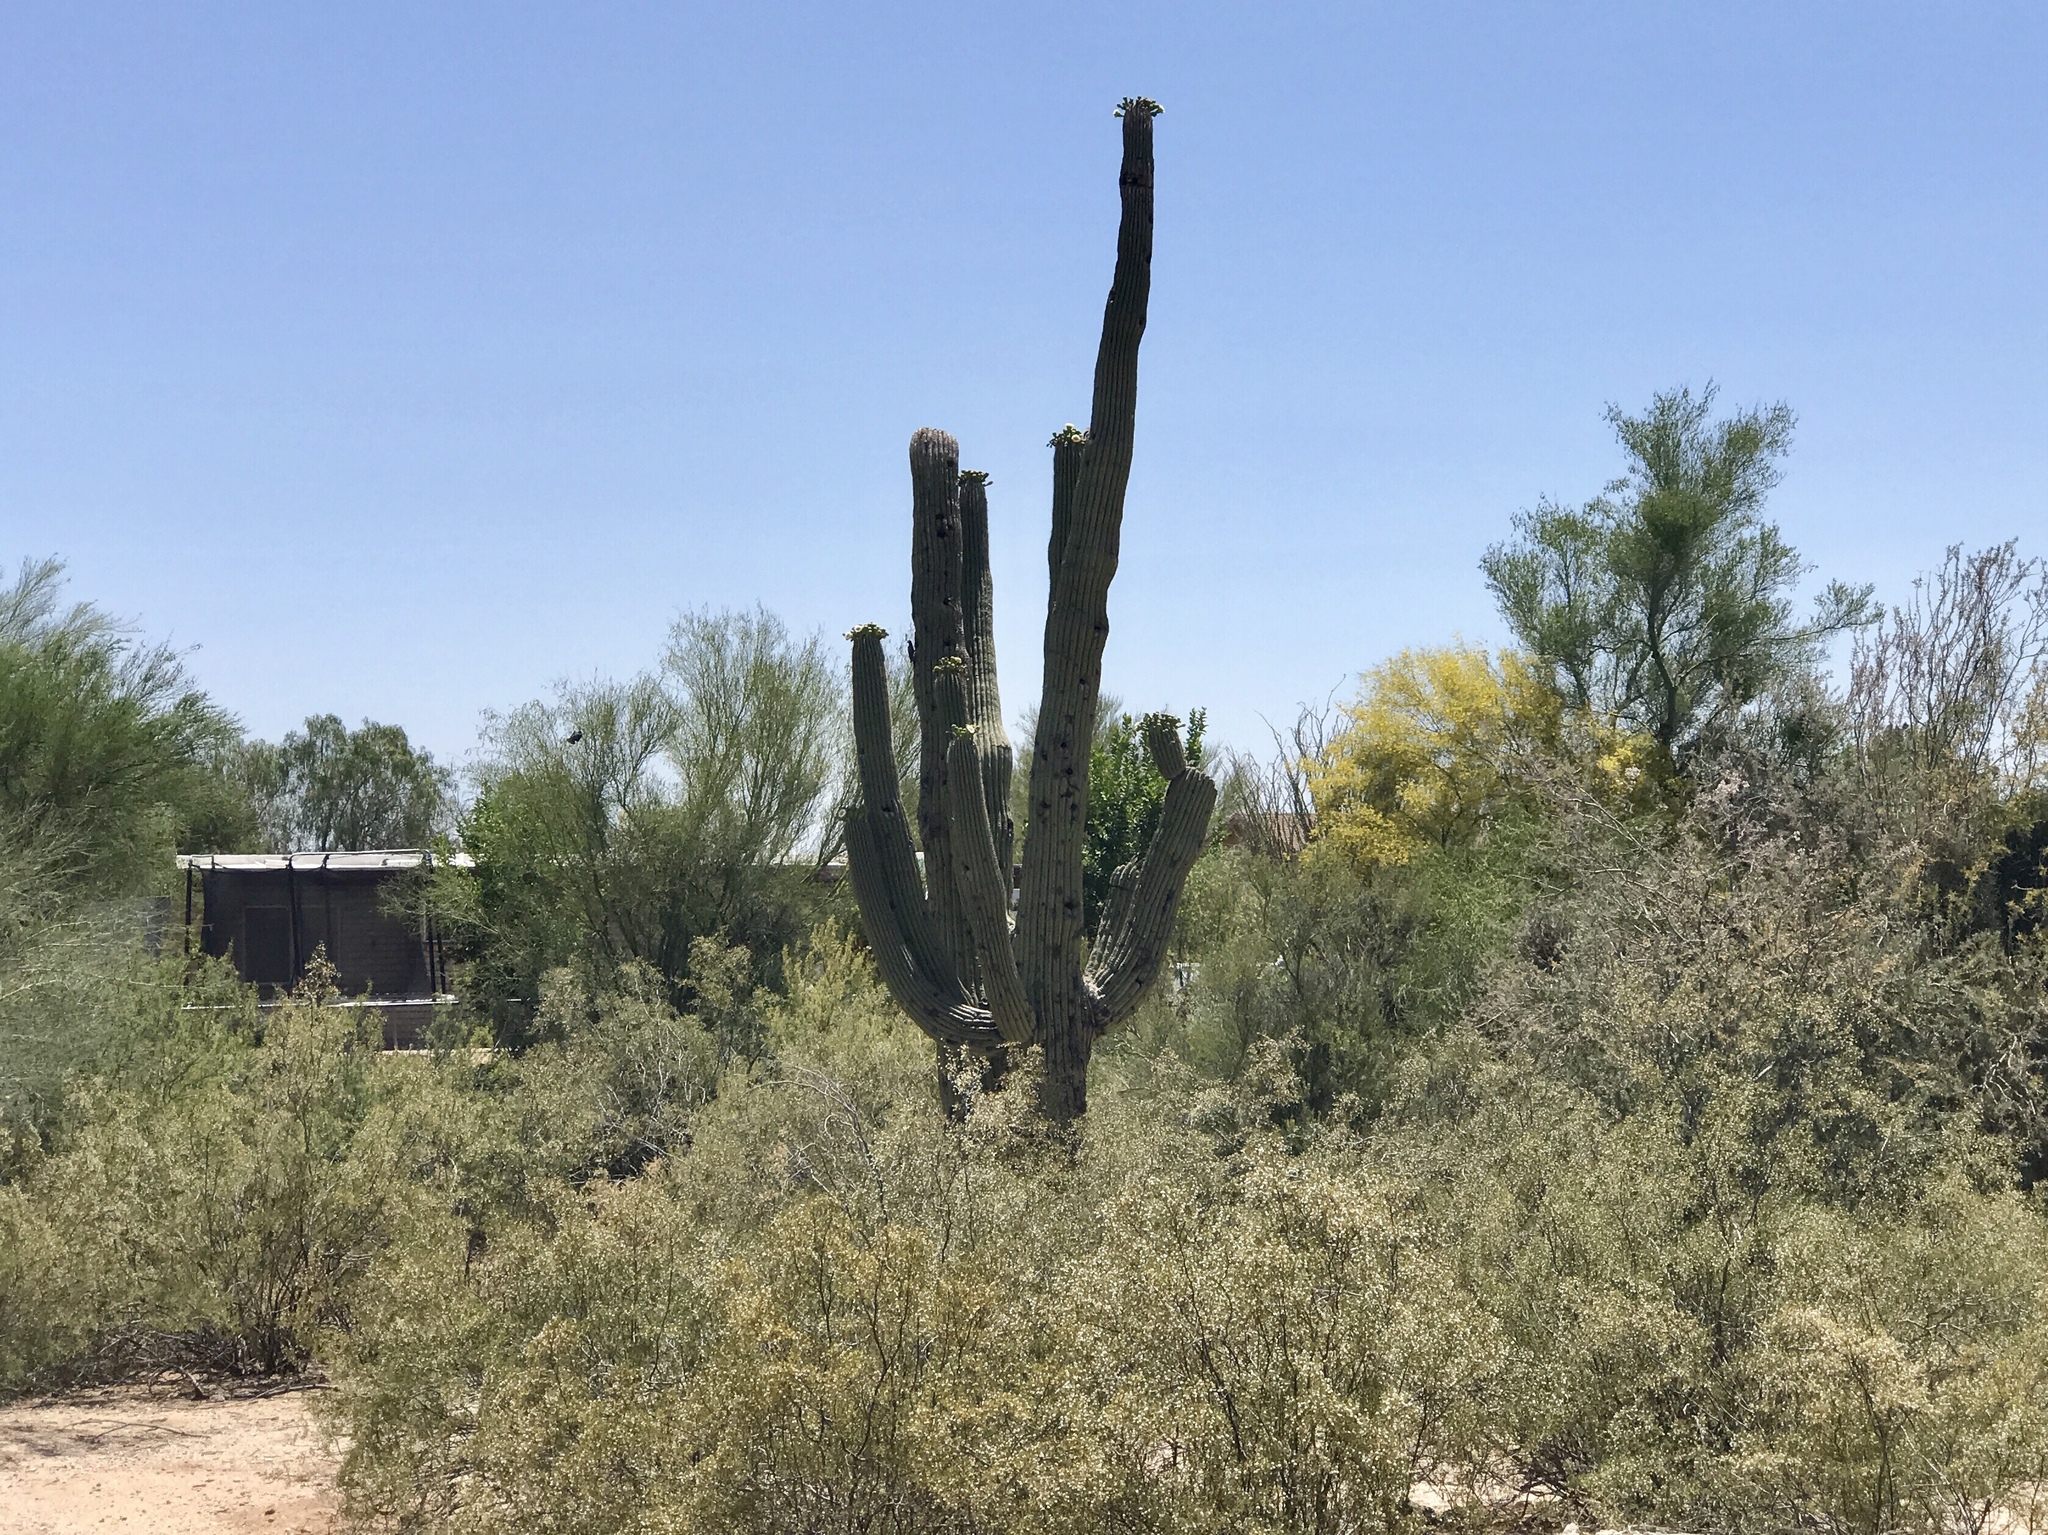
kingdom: Plantae
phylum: Tracheophyta
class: Magnoliopsida
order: Caryophyllales
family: Cactaceae
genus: Carnegiea
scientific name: Carnegiea gigantea
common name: Saguaro
